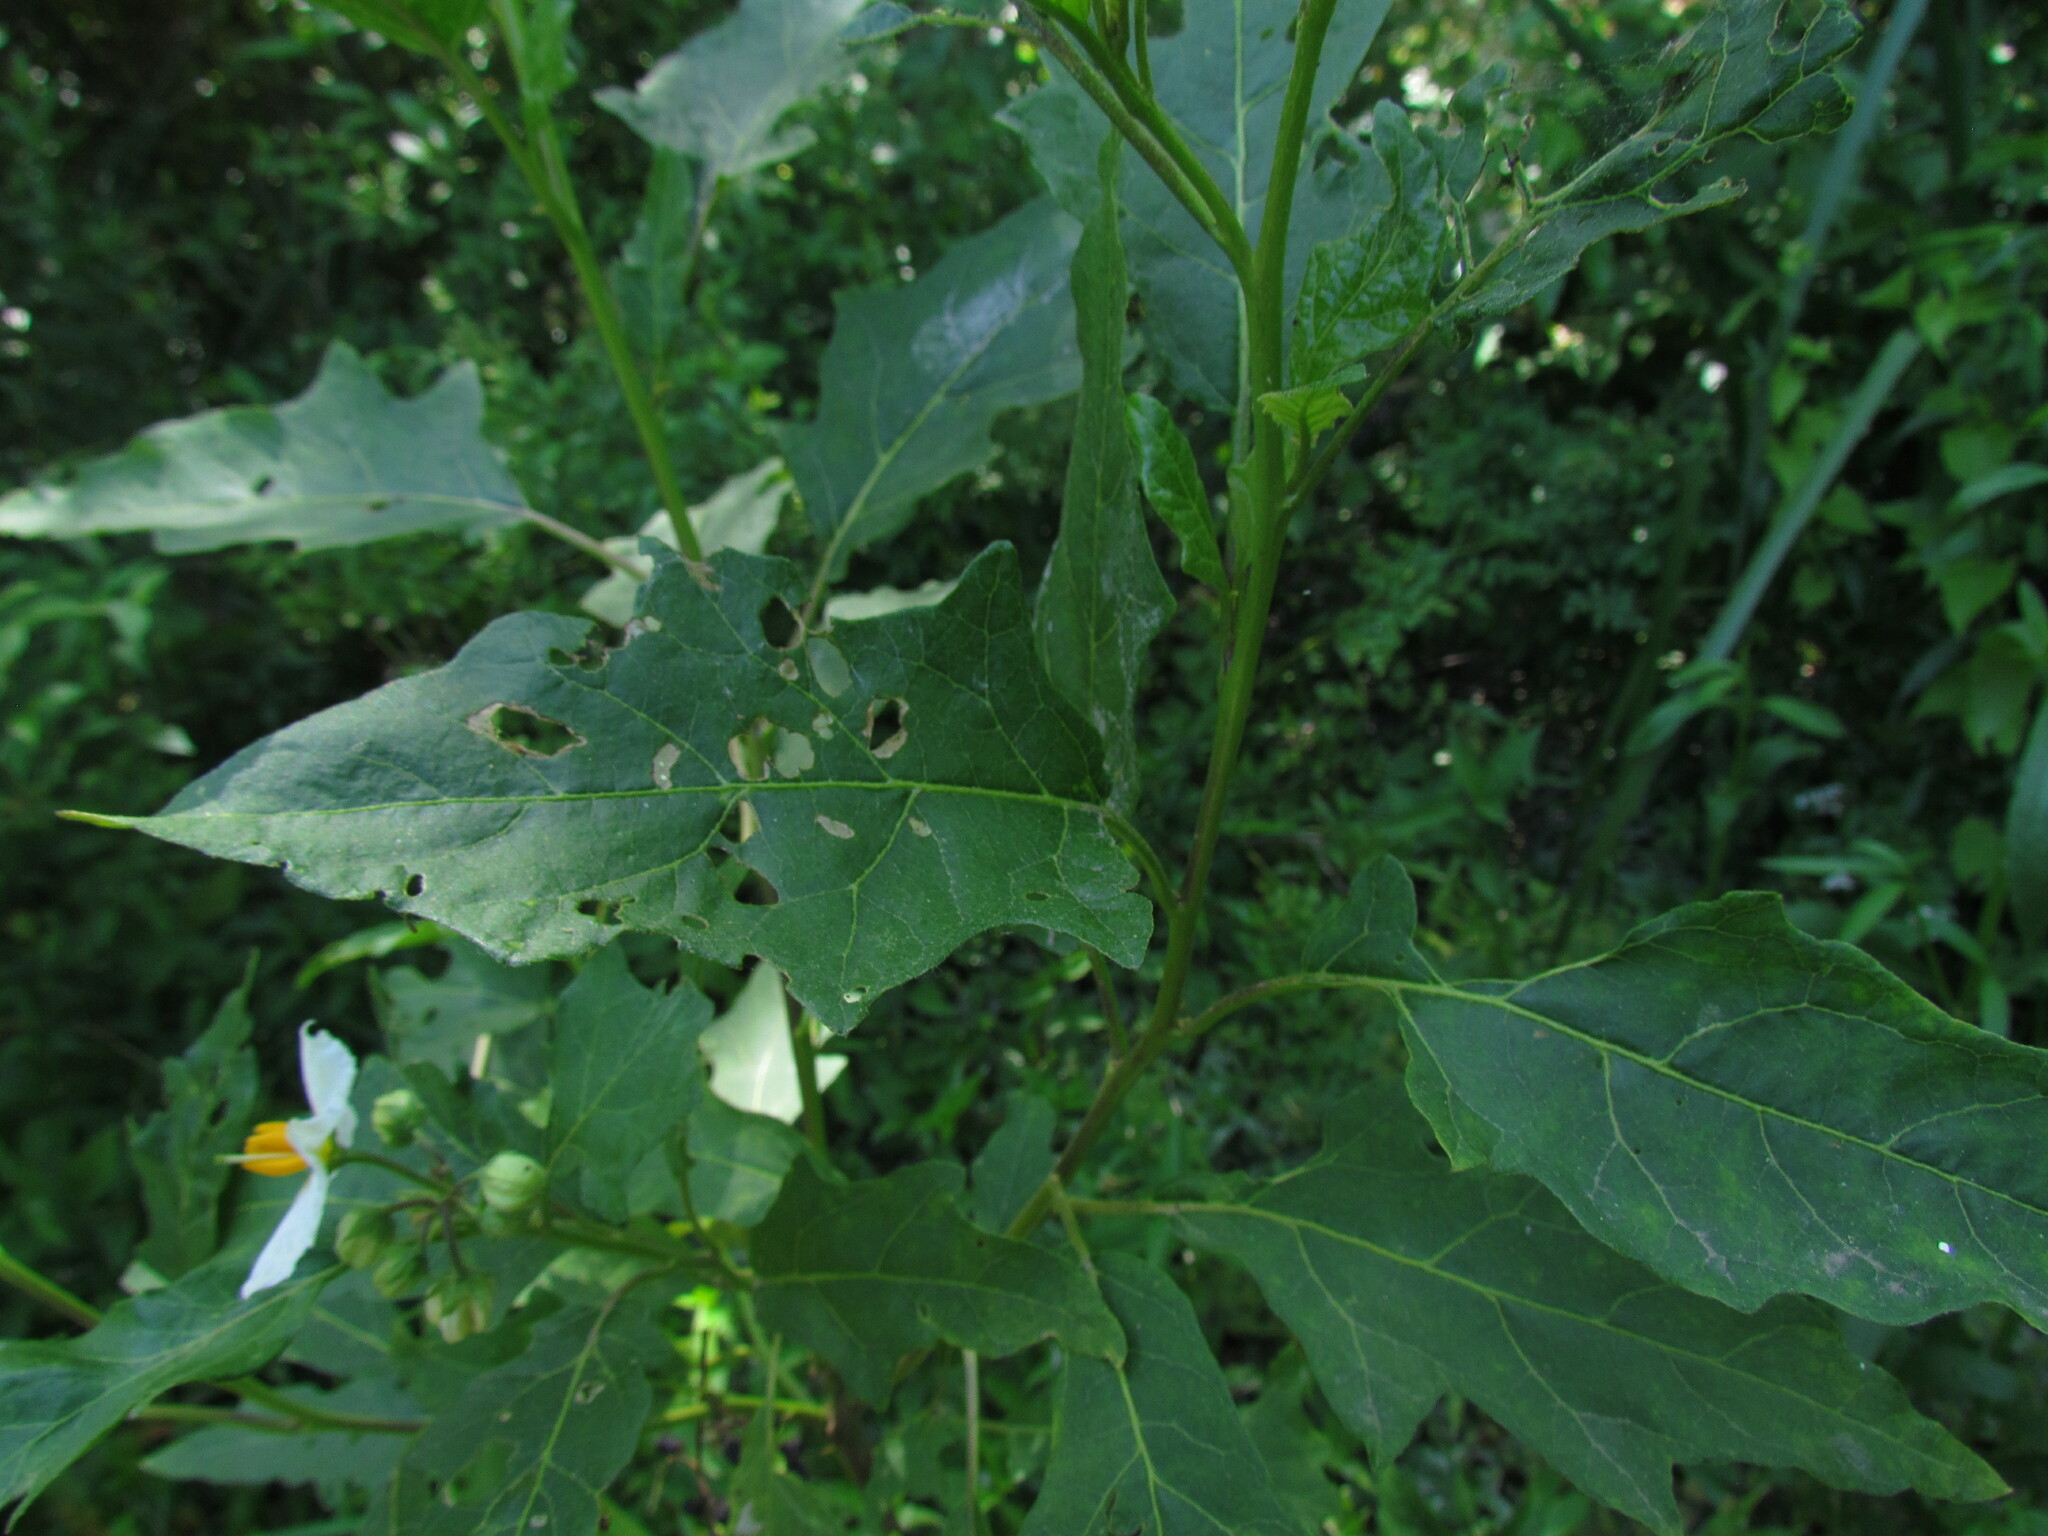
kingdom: Plantae
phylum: Tracheophyta
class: Magnoliopsida
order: Solanales
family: Solanaceae
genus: Solanum
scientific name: Solanum bonariense
